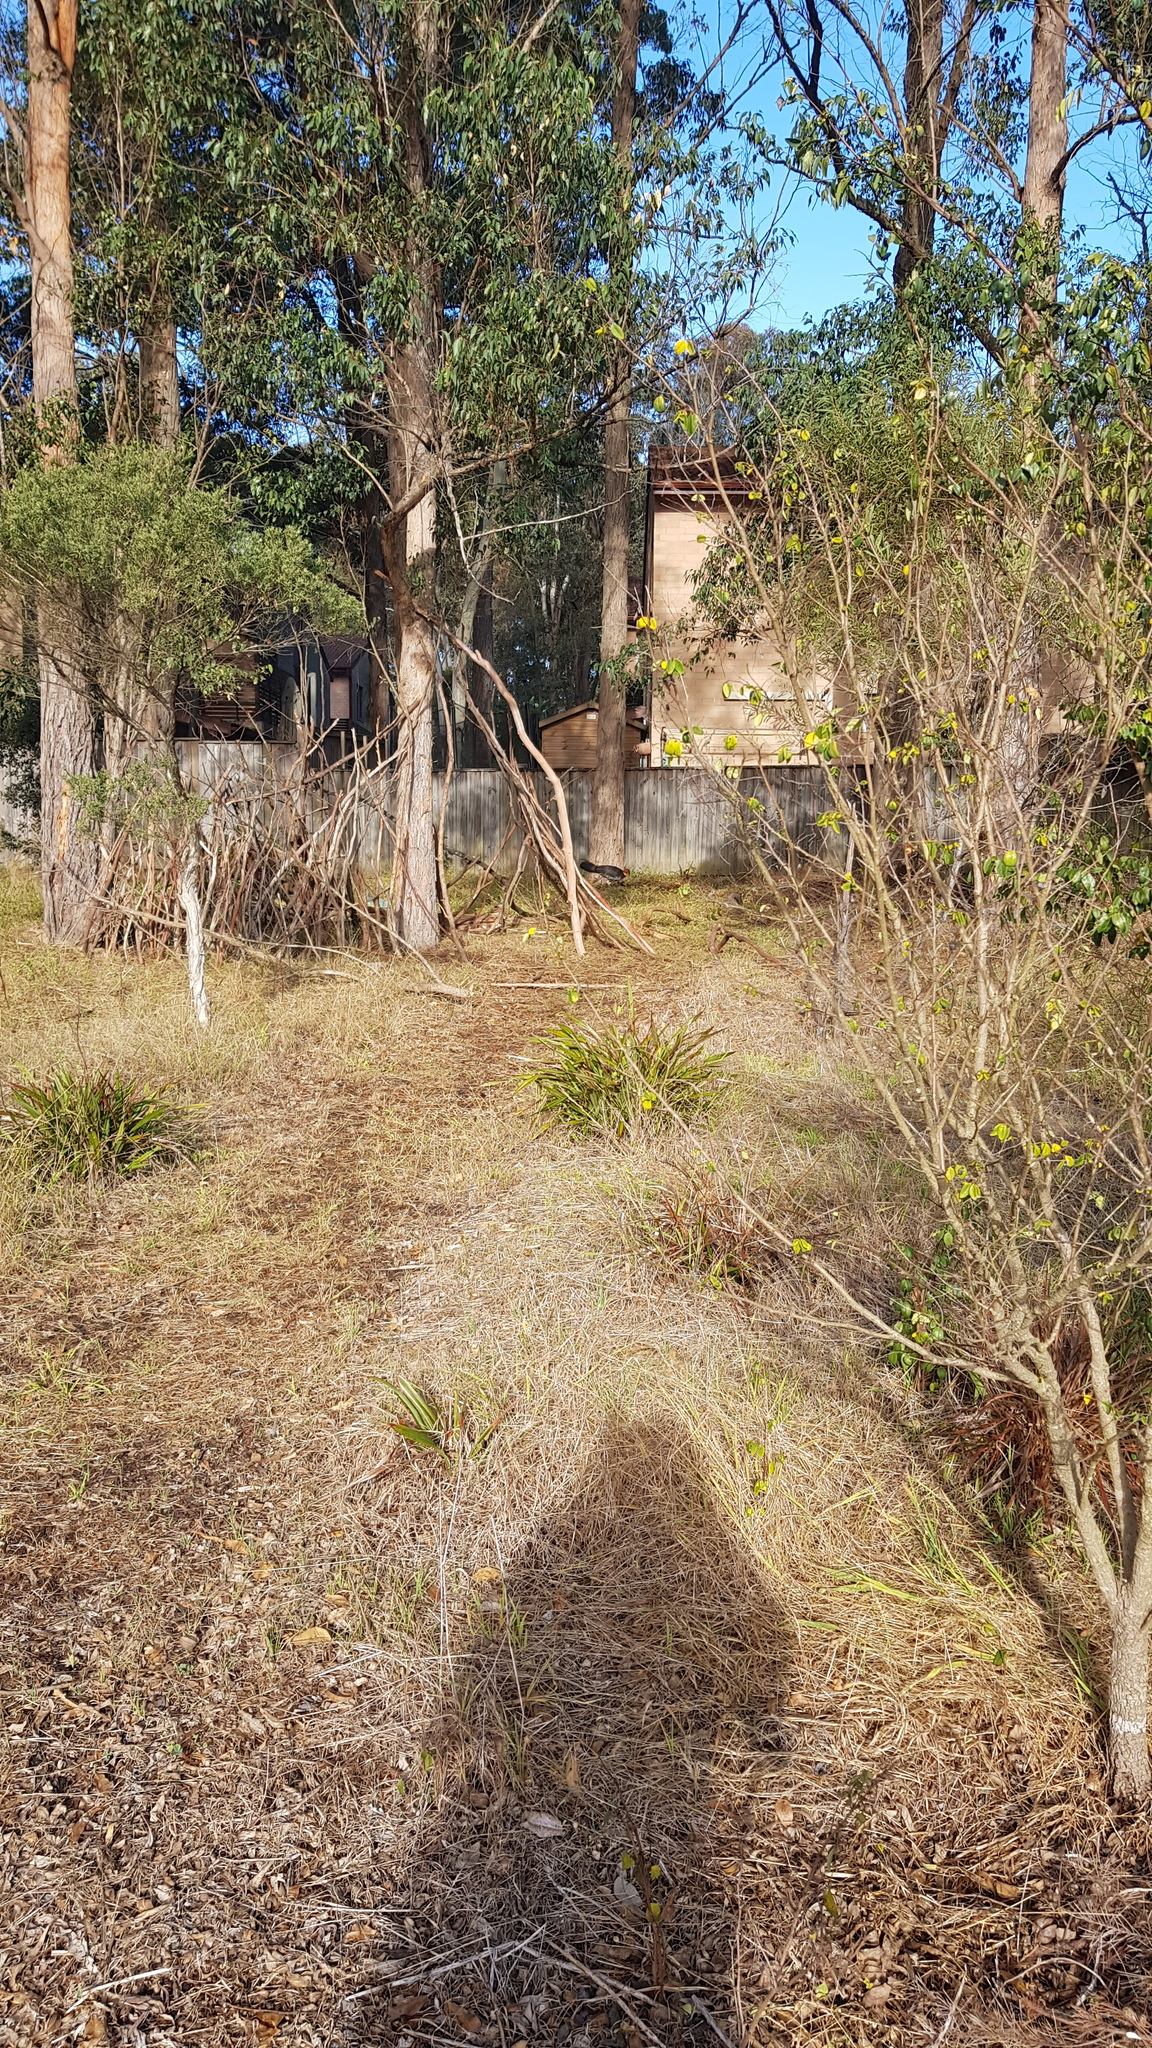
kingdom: Animalia
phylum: Chordata
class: Aves
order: Galliformes
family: Megapodiidae
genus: Alectura
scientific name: Alectura lathami
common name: Australian brushturkey
